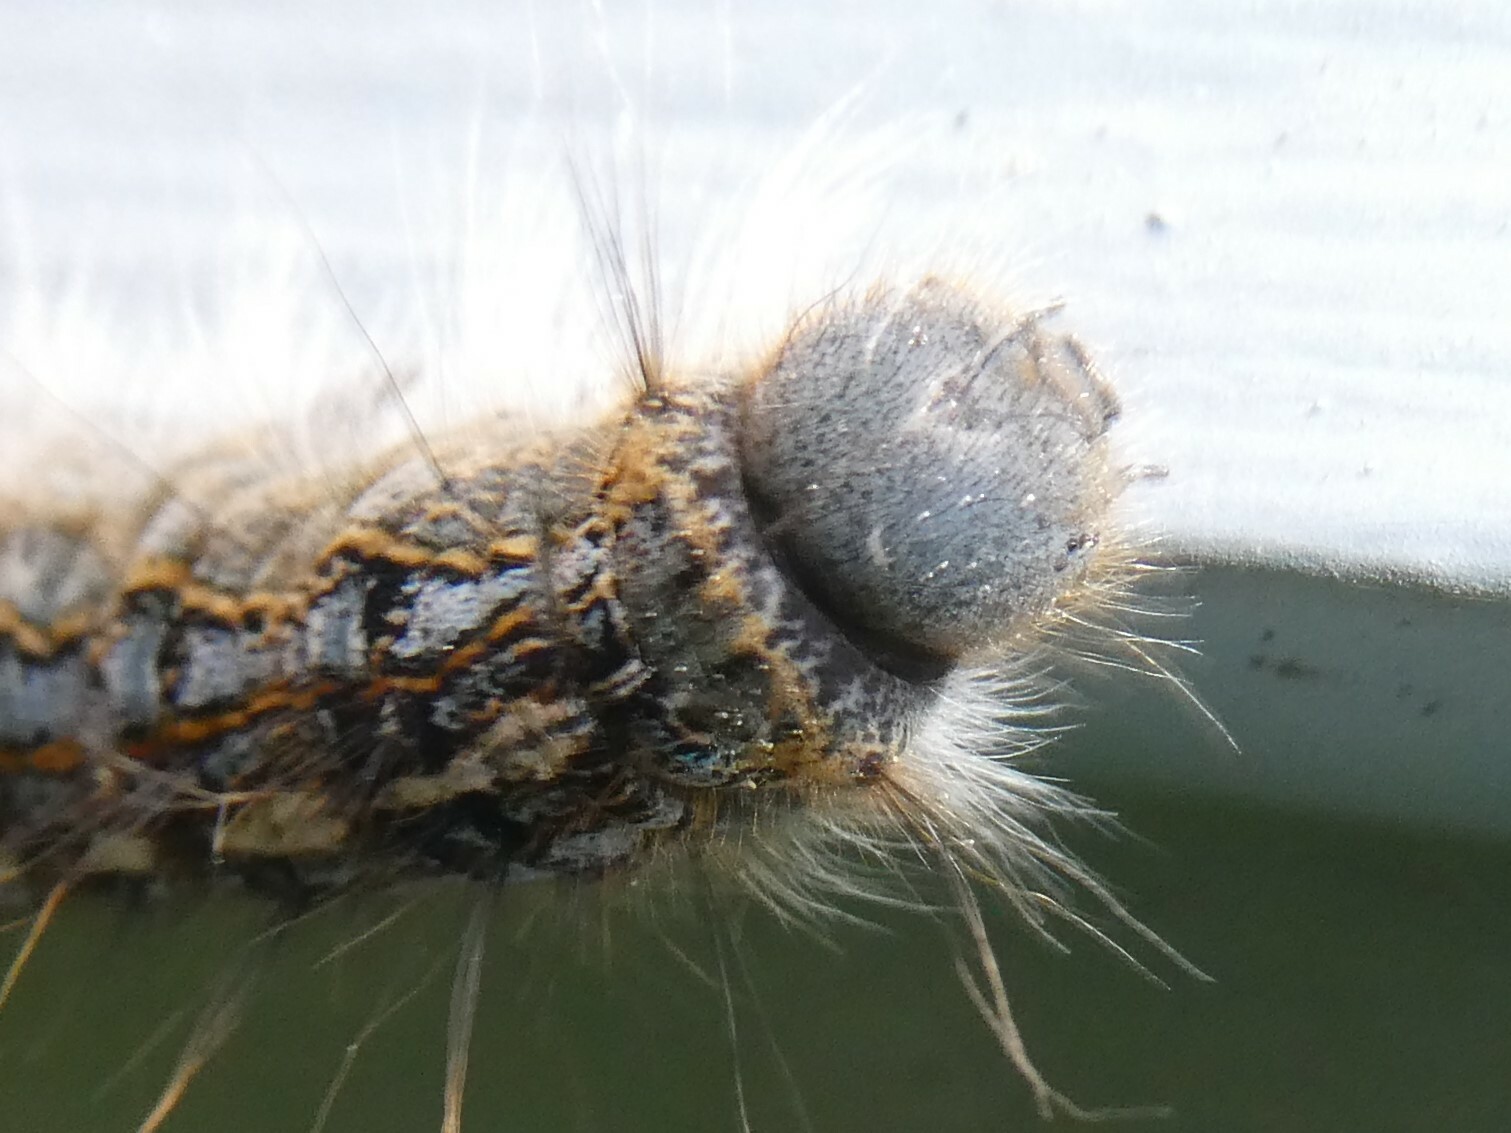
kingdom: Animalia
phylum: Arthropoda
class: Insecta
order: Lepidoptera
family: Lasiocampidae
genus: Malacosoma
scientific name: Malacosoma disstria
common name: Forest tent caterpillar
